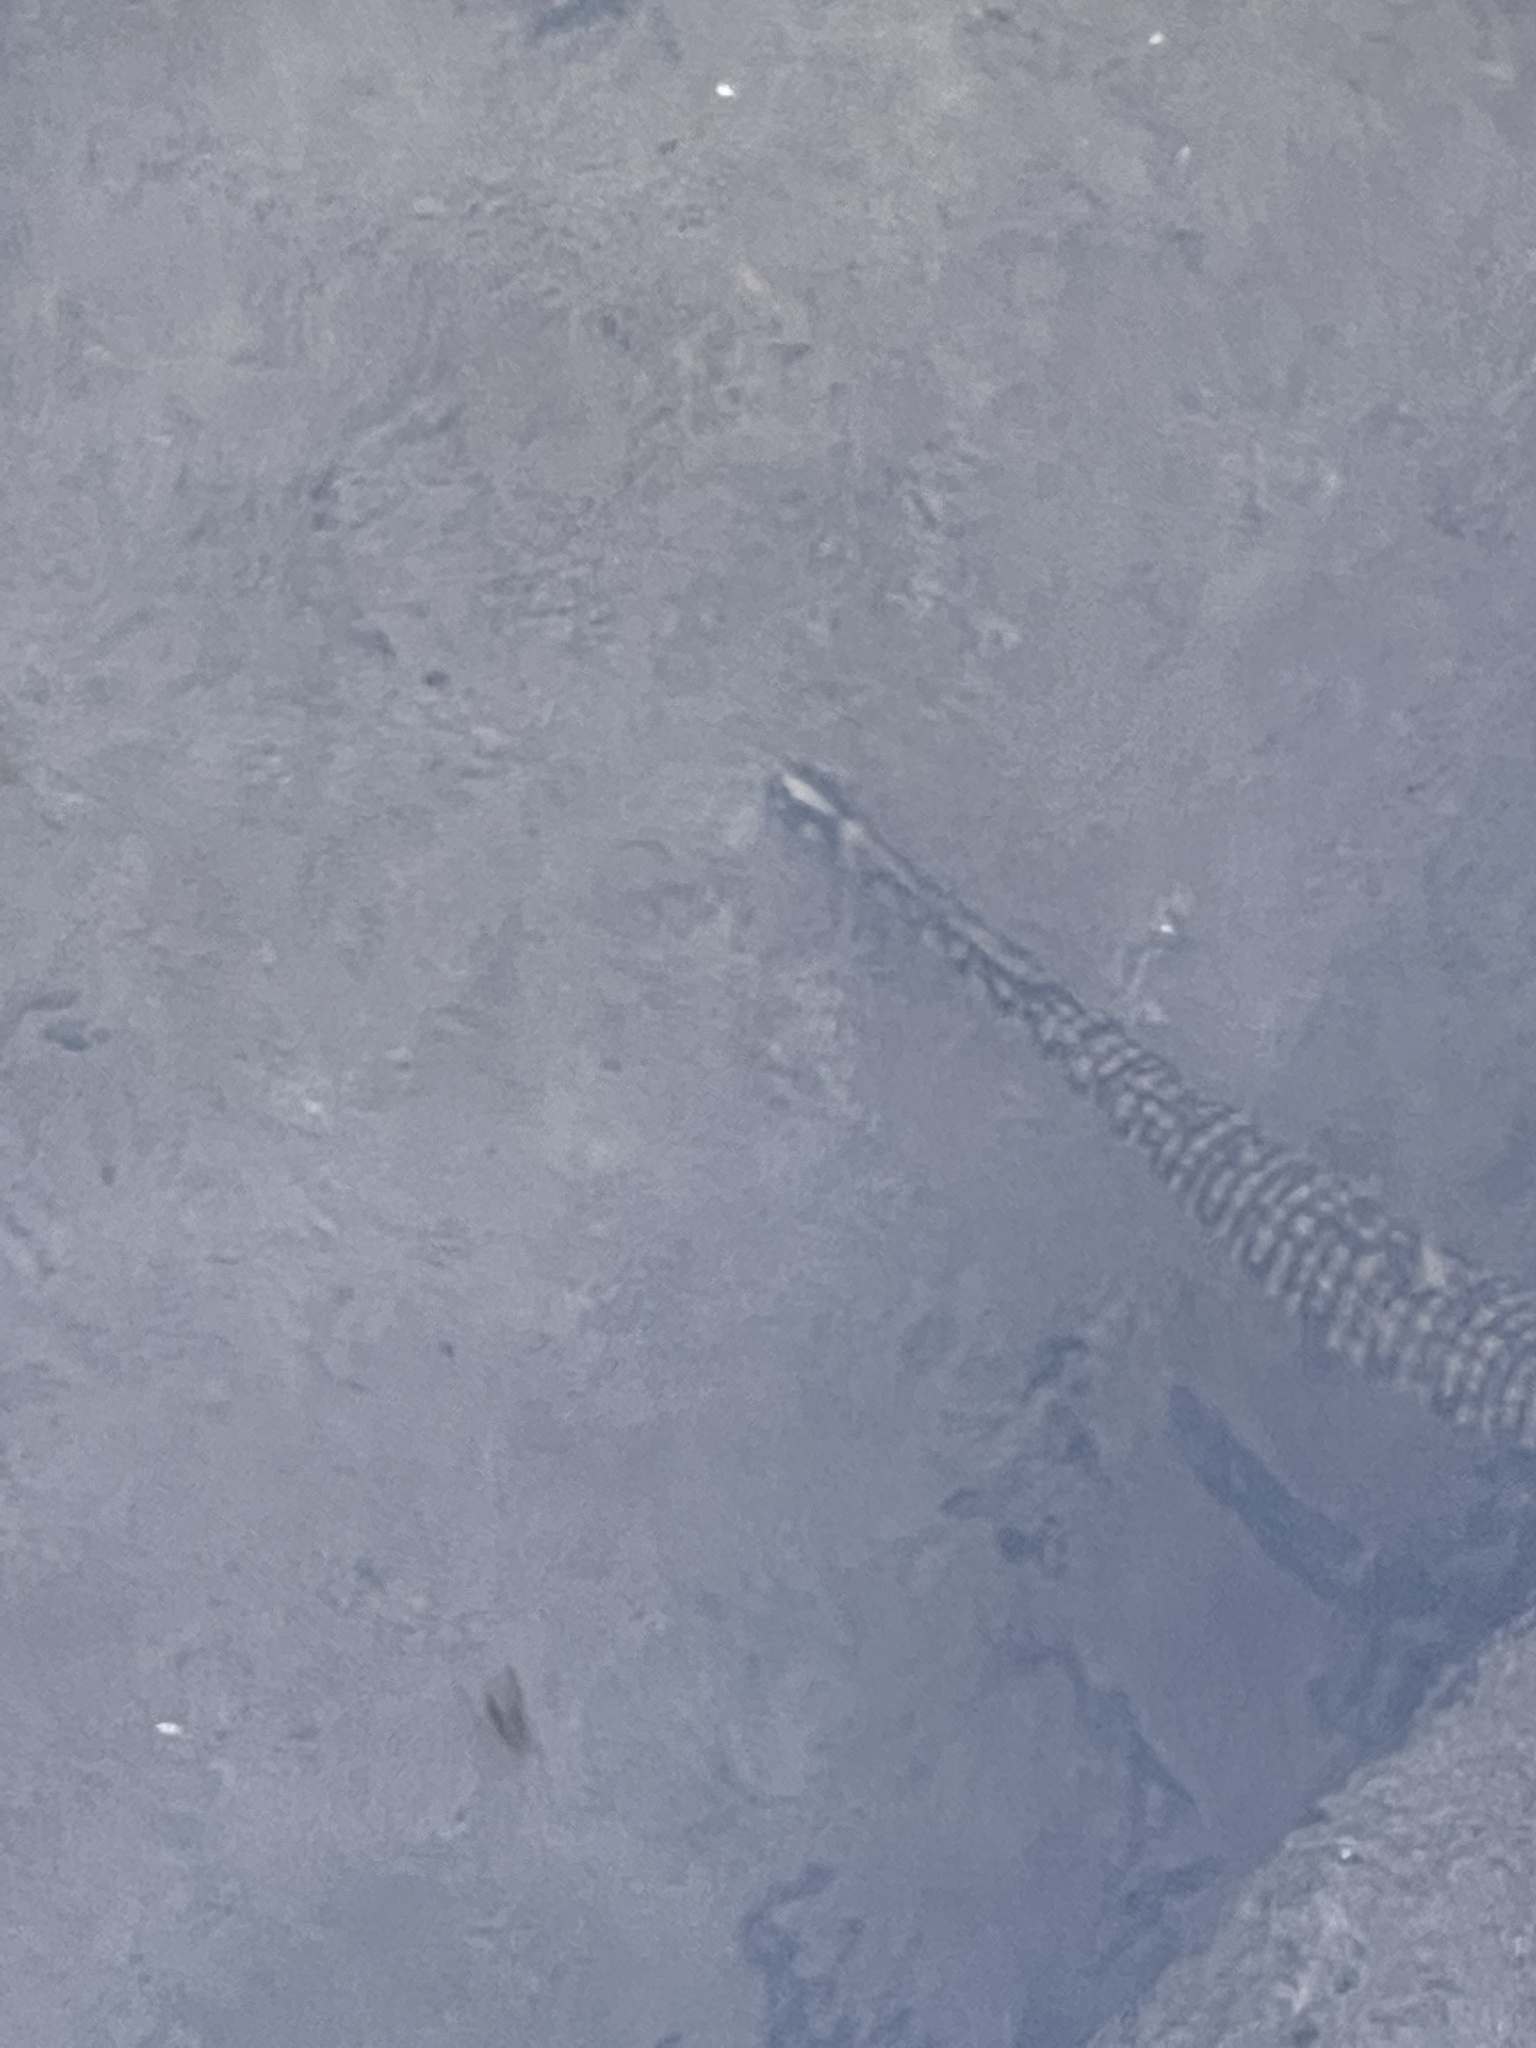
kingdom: Animalia
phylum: Annelida
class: Clitellata
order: Rhynchobdellida
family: Glossiphoniidae
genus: Placobdella
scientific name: Placobdella parasitica
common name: Smooth turtle leech
